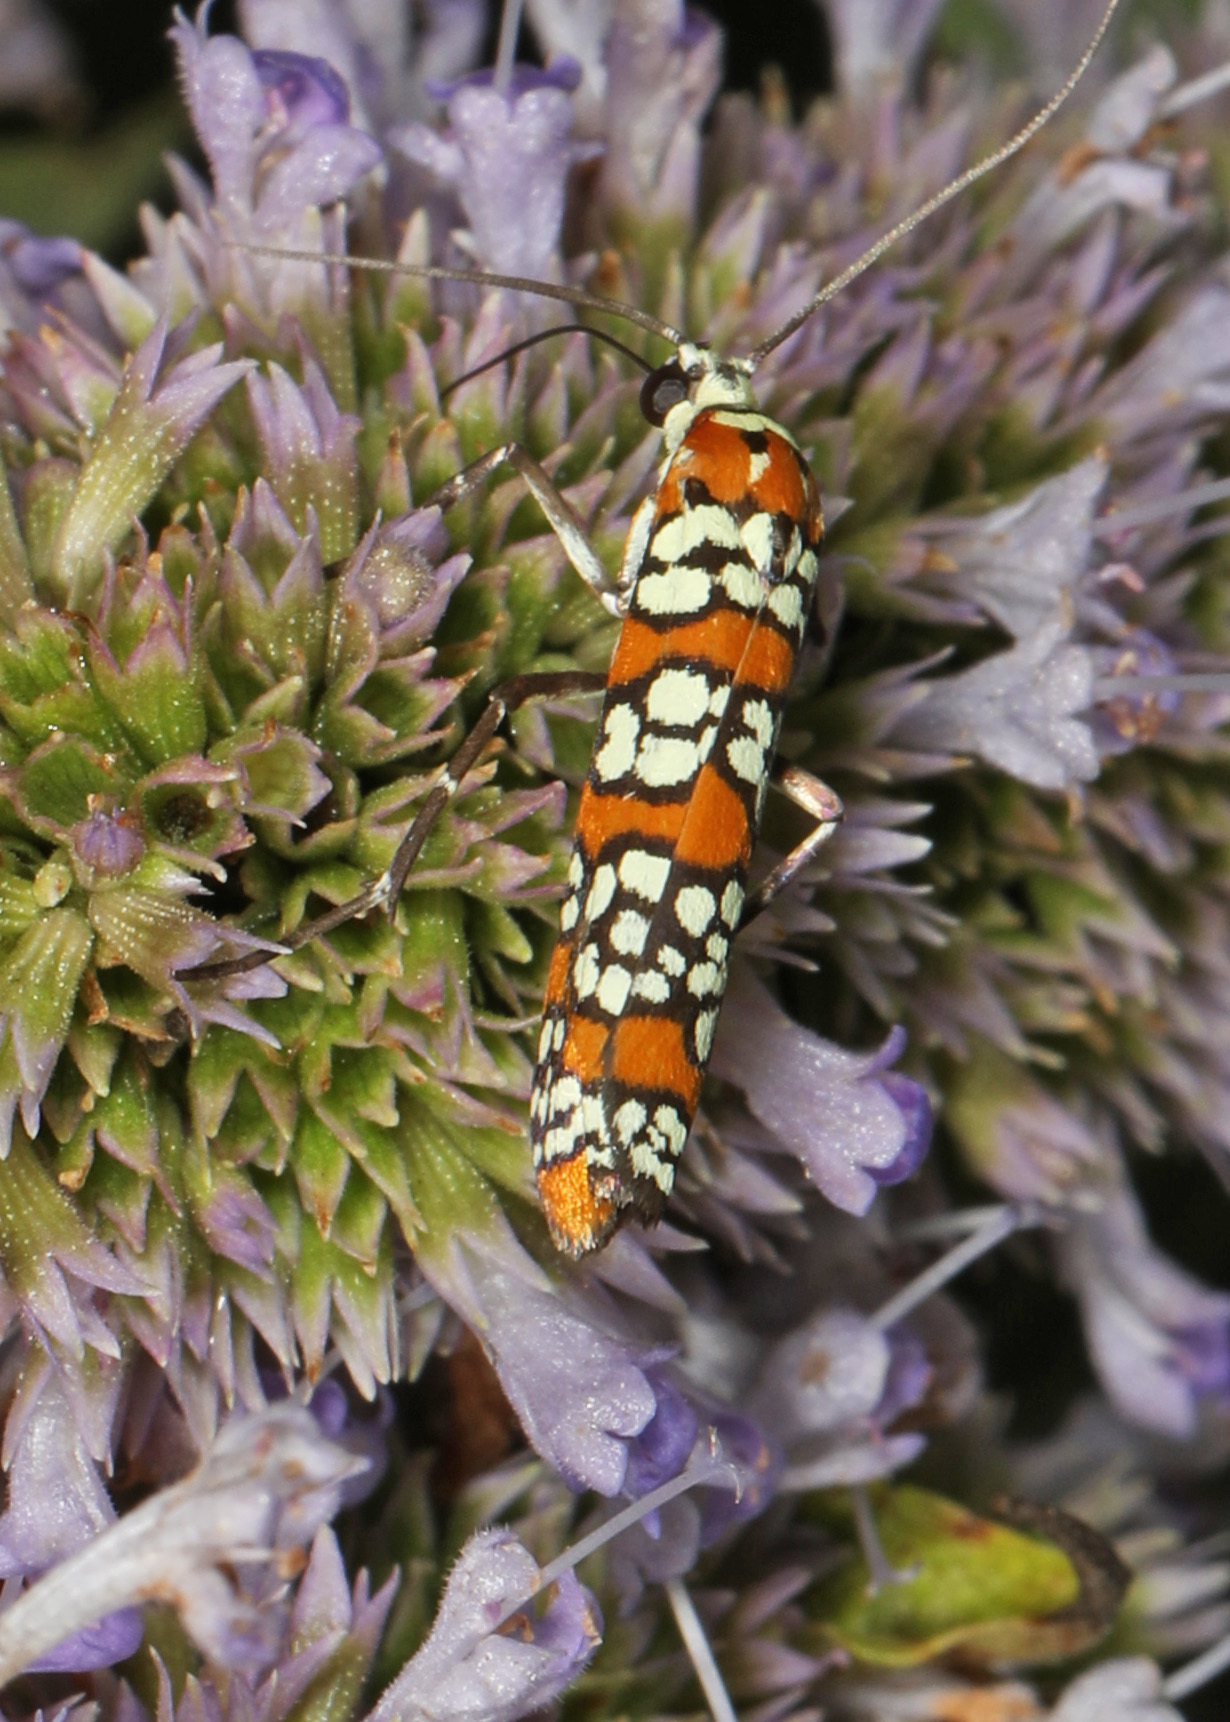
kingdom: Animalia
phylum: Arthropoda
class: Insecta
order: Lepidoptera
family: Attevidae
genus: Atteva
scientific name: Atteva punctella
